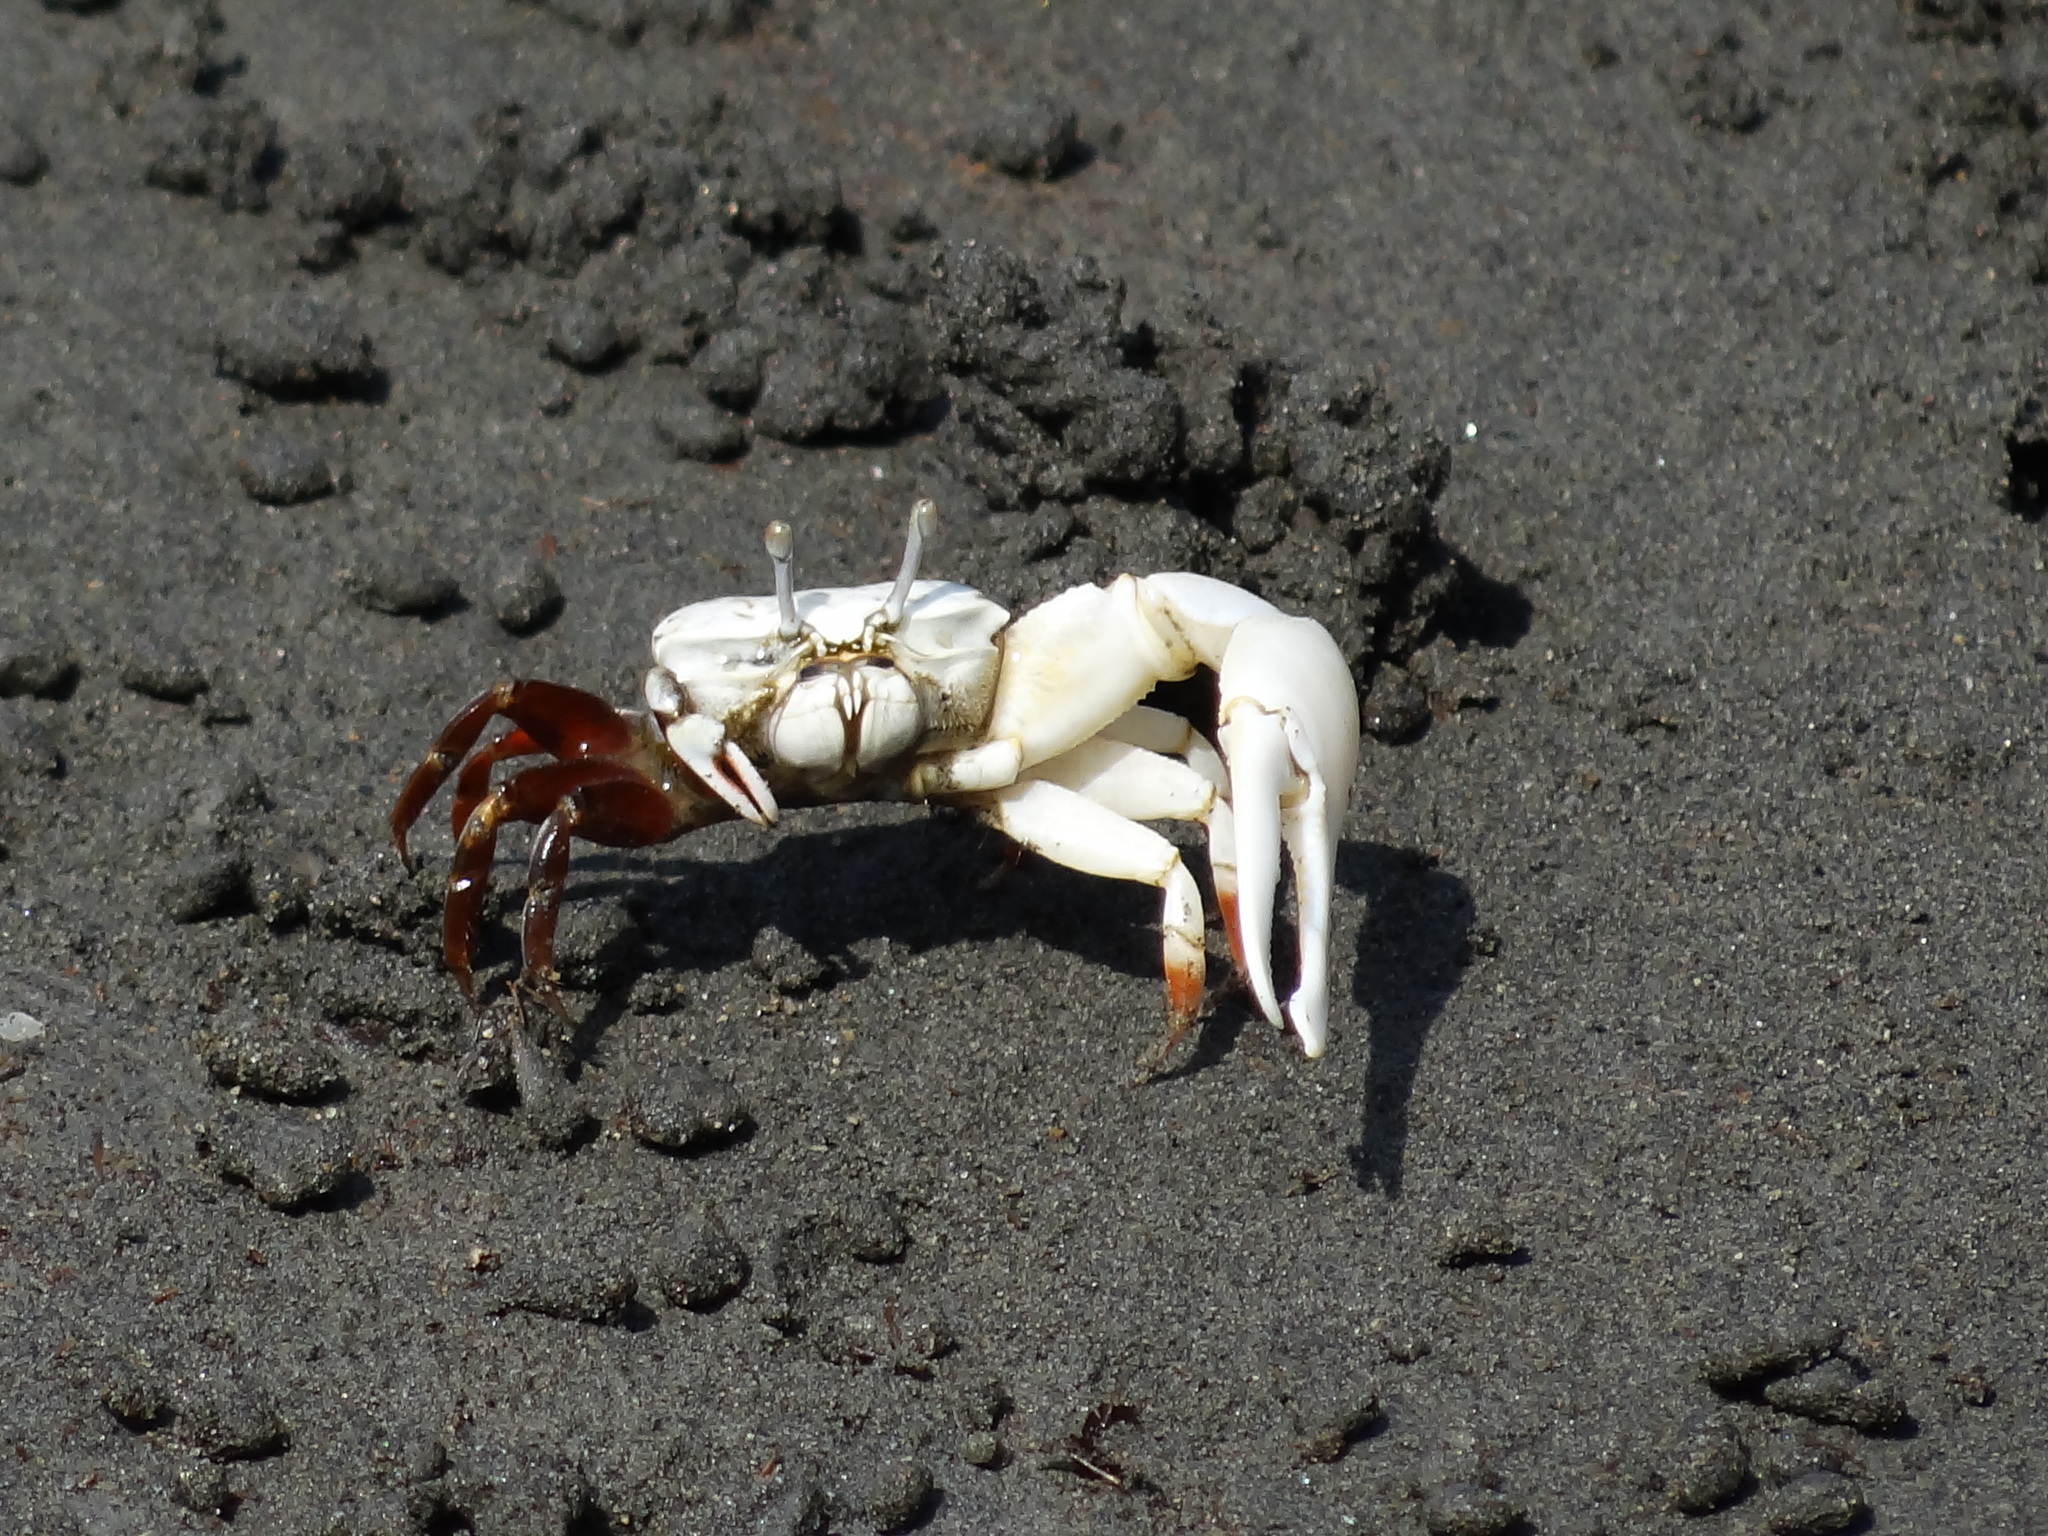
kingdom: Animalia
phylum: Arthropoda
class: Malacostraca
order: Decapoda
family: Ocypodidae
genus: Austruca
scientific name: Austruca lactea
